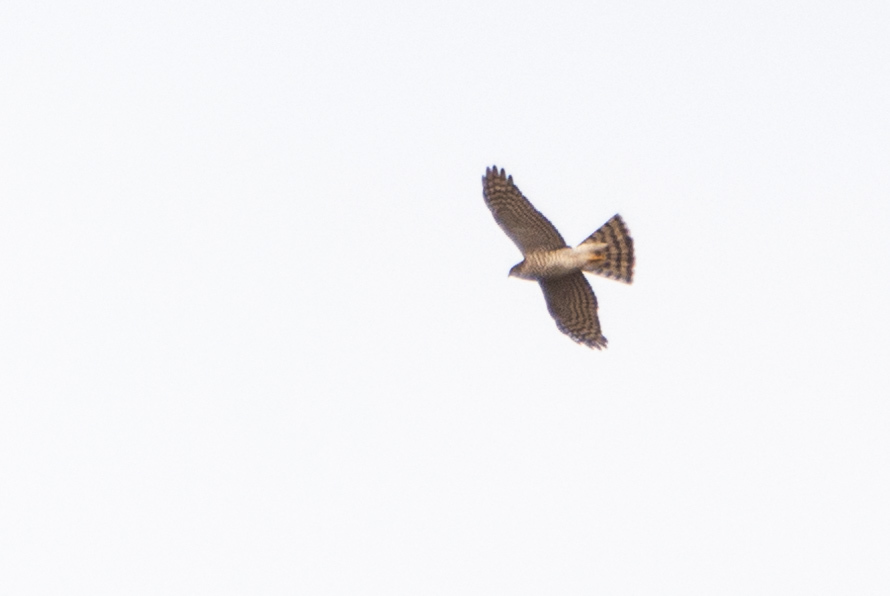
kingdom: Animalia
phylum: Chordata
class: Aves
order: Accipitriformes
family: Accipitridae
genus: Accipiter
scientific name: Accipiter nisus
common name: Eurasian sparrowhawk
